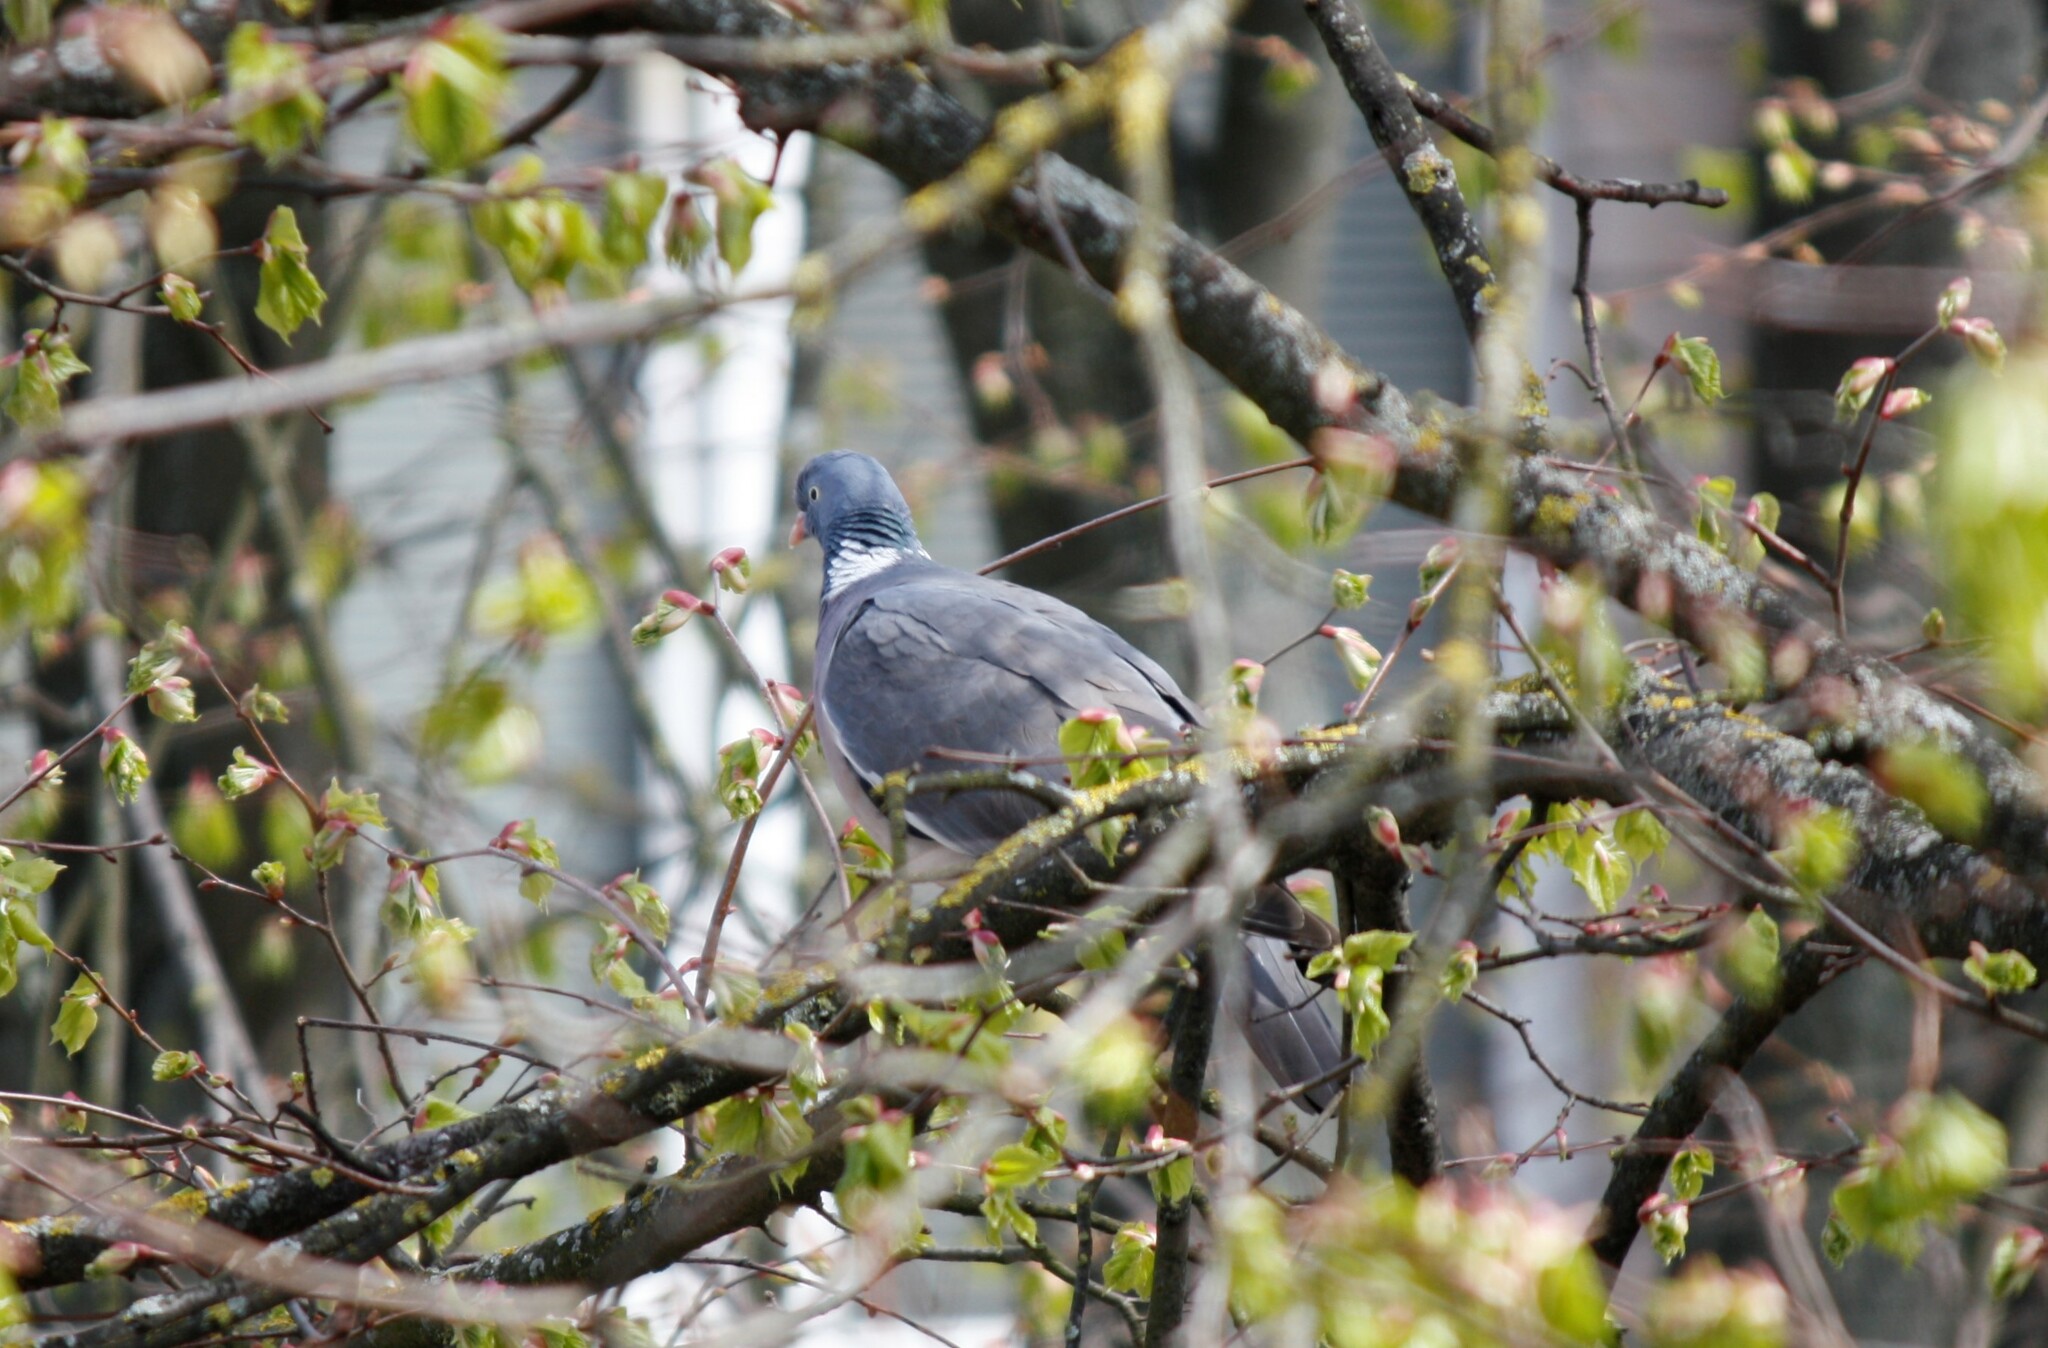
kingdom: Animalia
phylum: Chordata
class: Aves
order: Columbiformes
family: Columbidae
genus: Columba
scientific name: Columba palumbus
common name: Common wood pigeon
